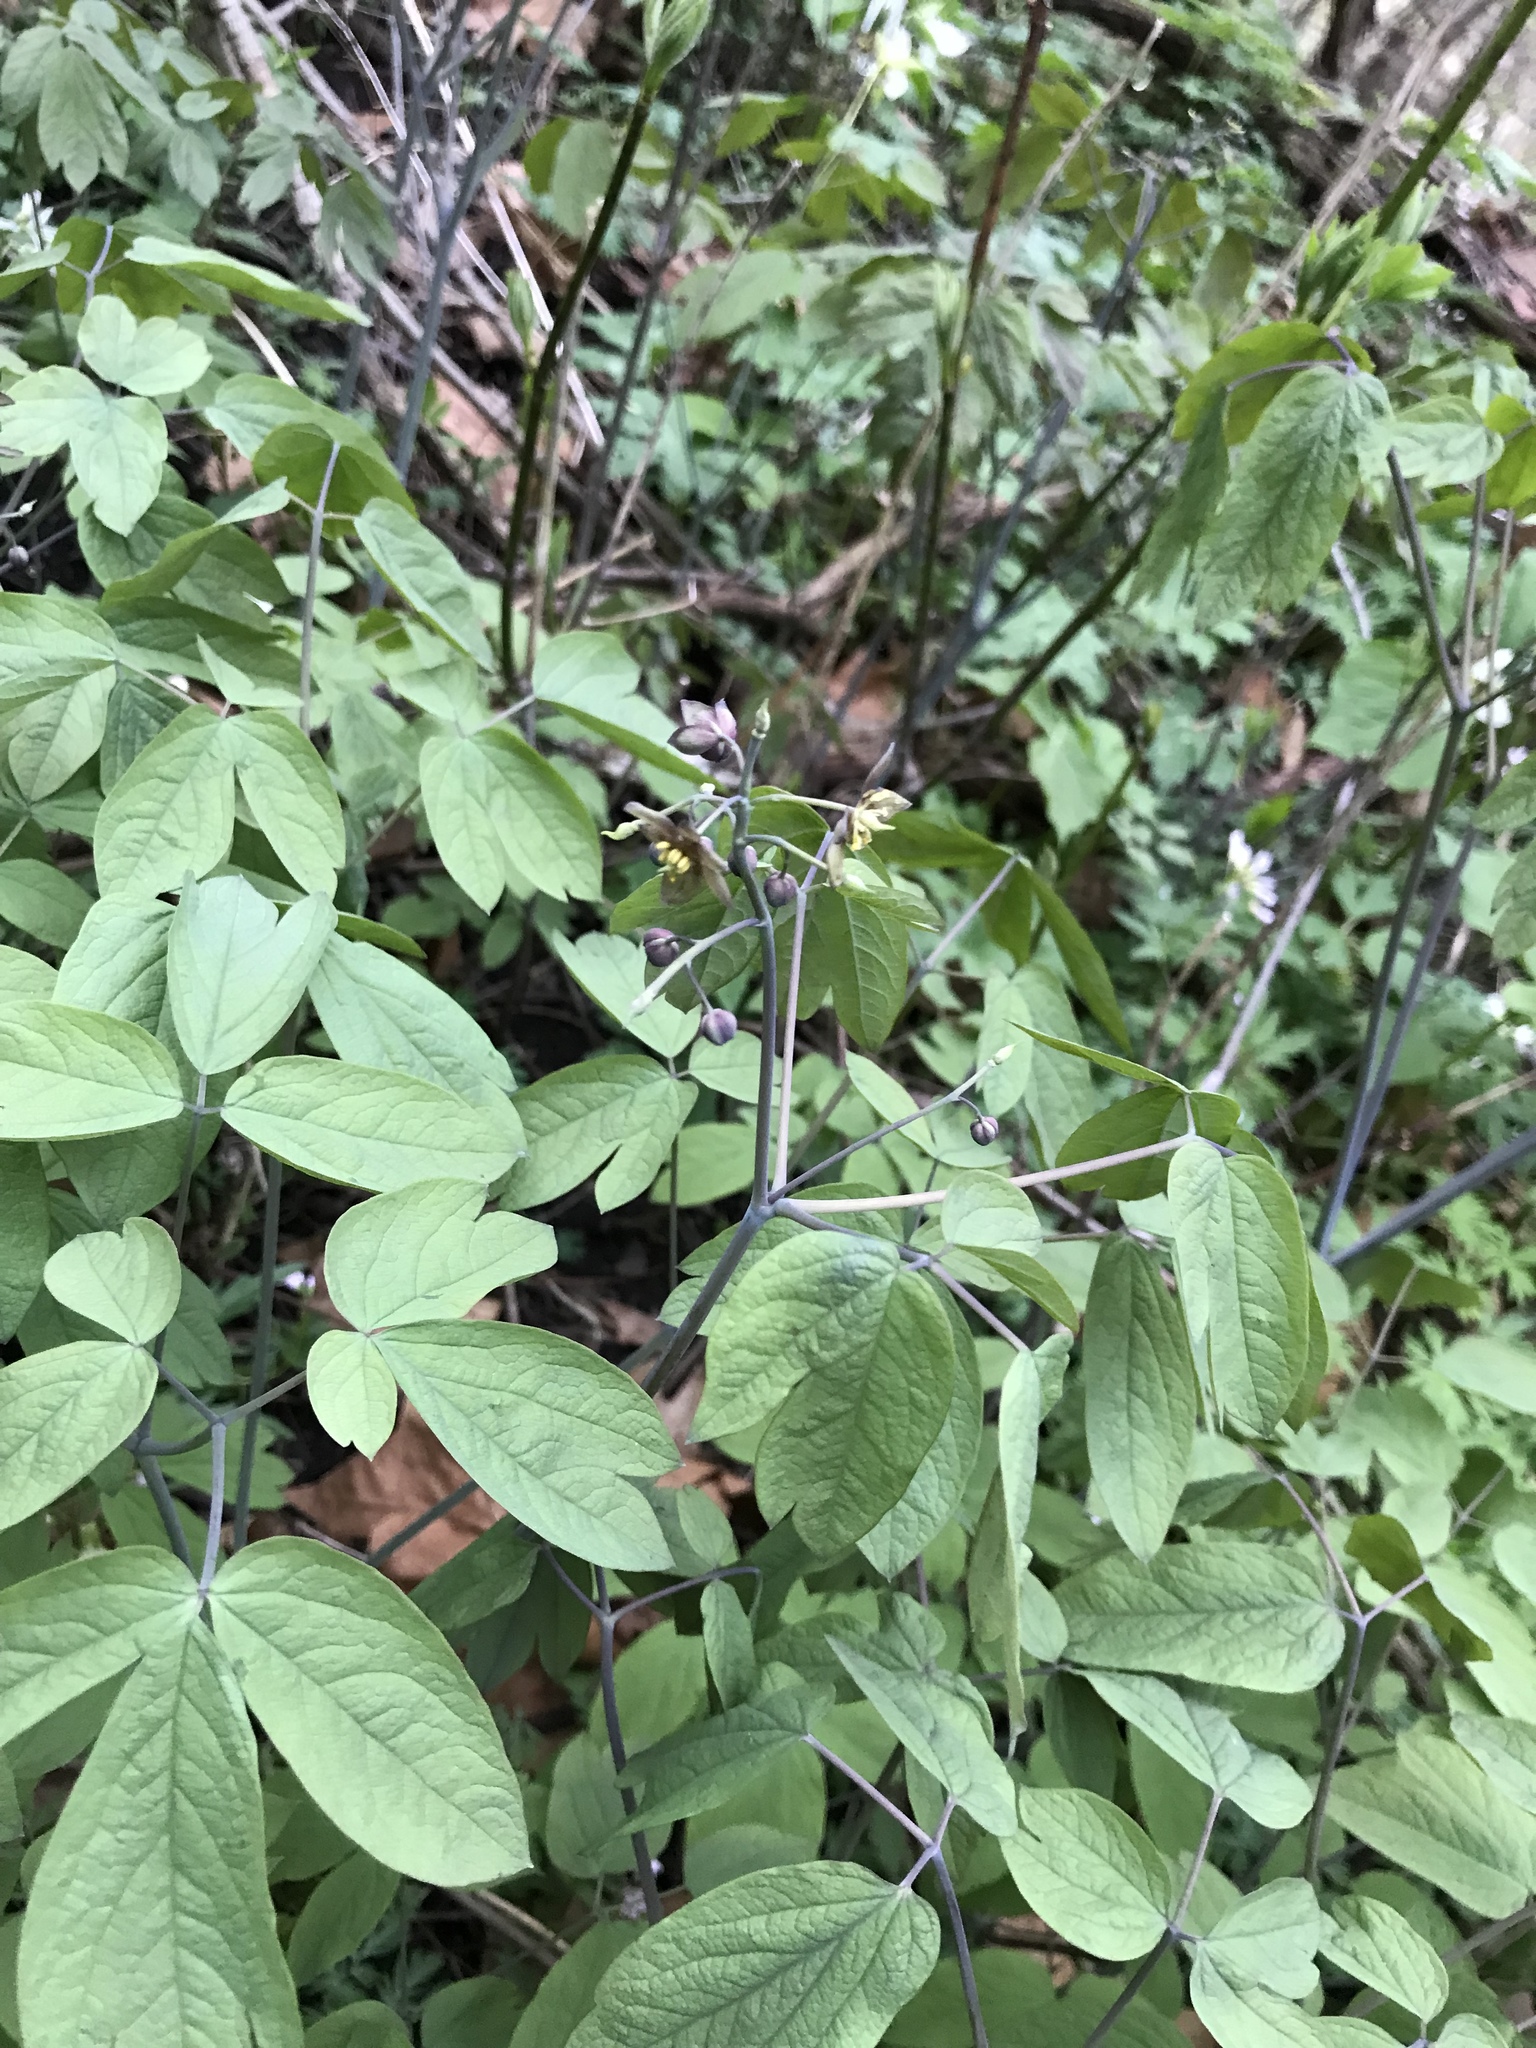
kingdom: Plantae
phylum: Tracheophyta
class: Magnoliopsida
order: Ranunculales
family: Berberidaceae
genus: Caulophyllum
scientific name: Caulophyllum thalictroides
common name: Blue cohosh
